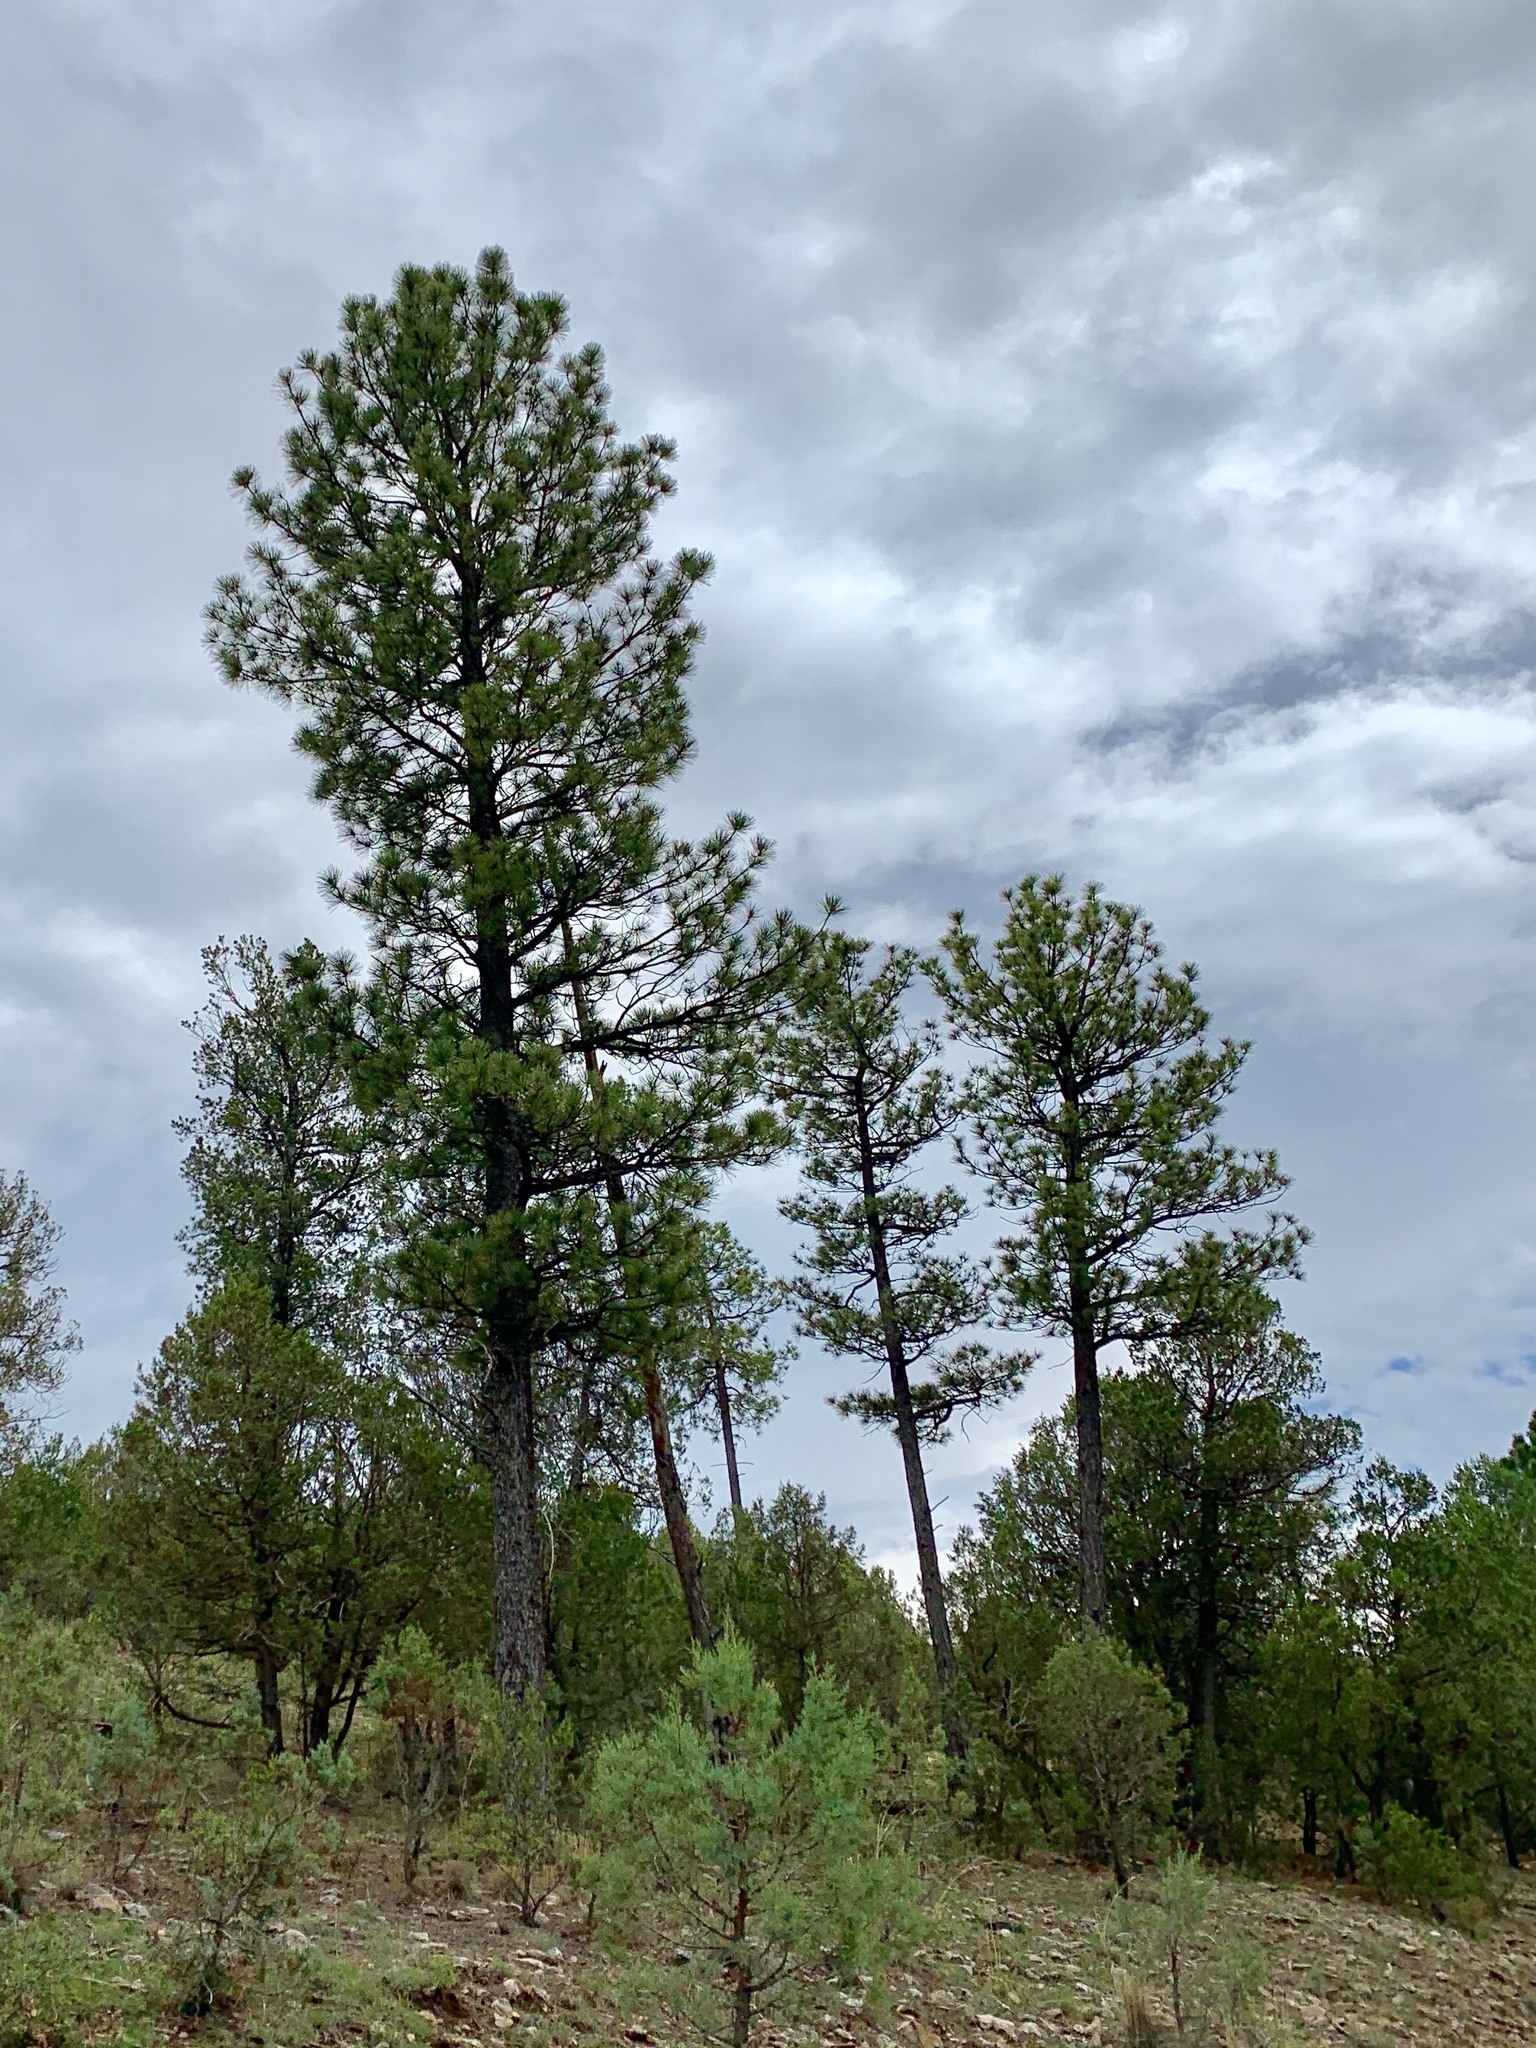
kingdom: Plantae
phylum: Tracheophyta
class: Pinopsida
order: Pinales
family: Pinaceae
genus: Pinus
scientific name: Pinus ponderosa
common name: Western yellow-pine
